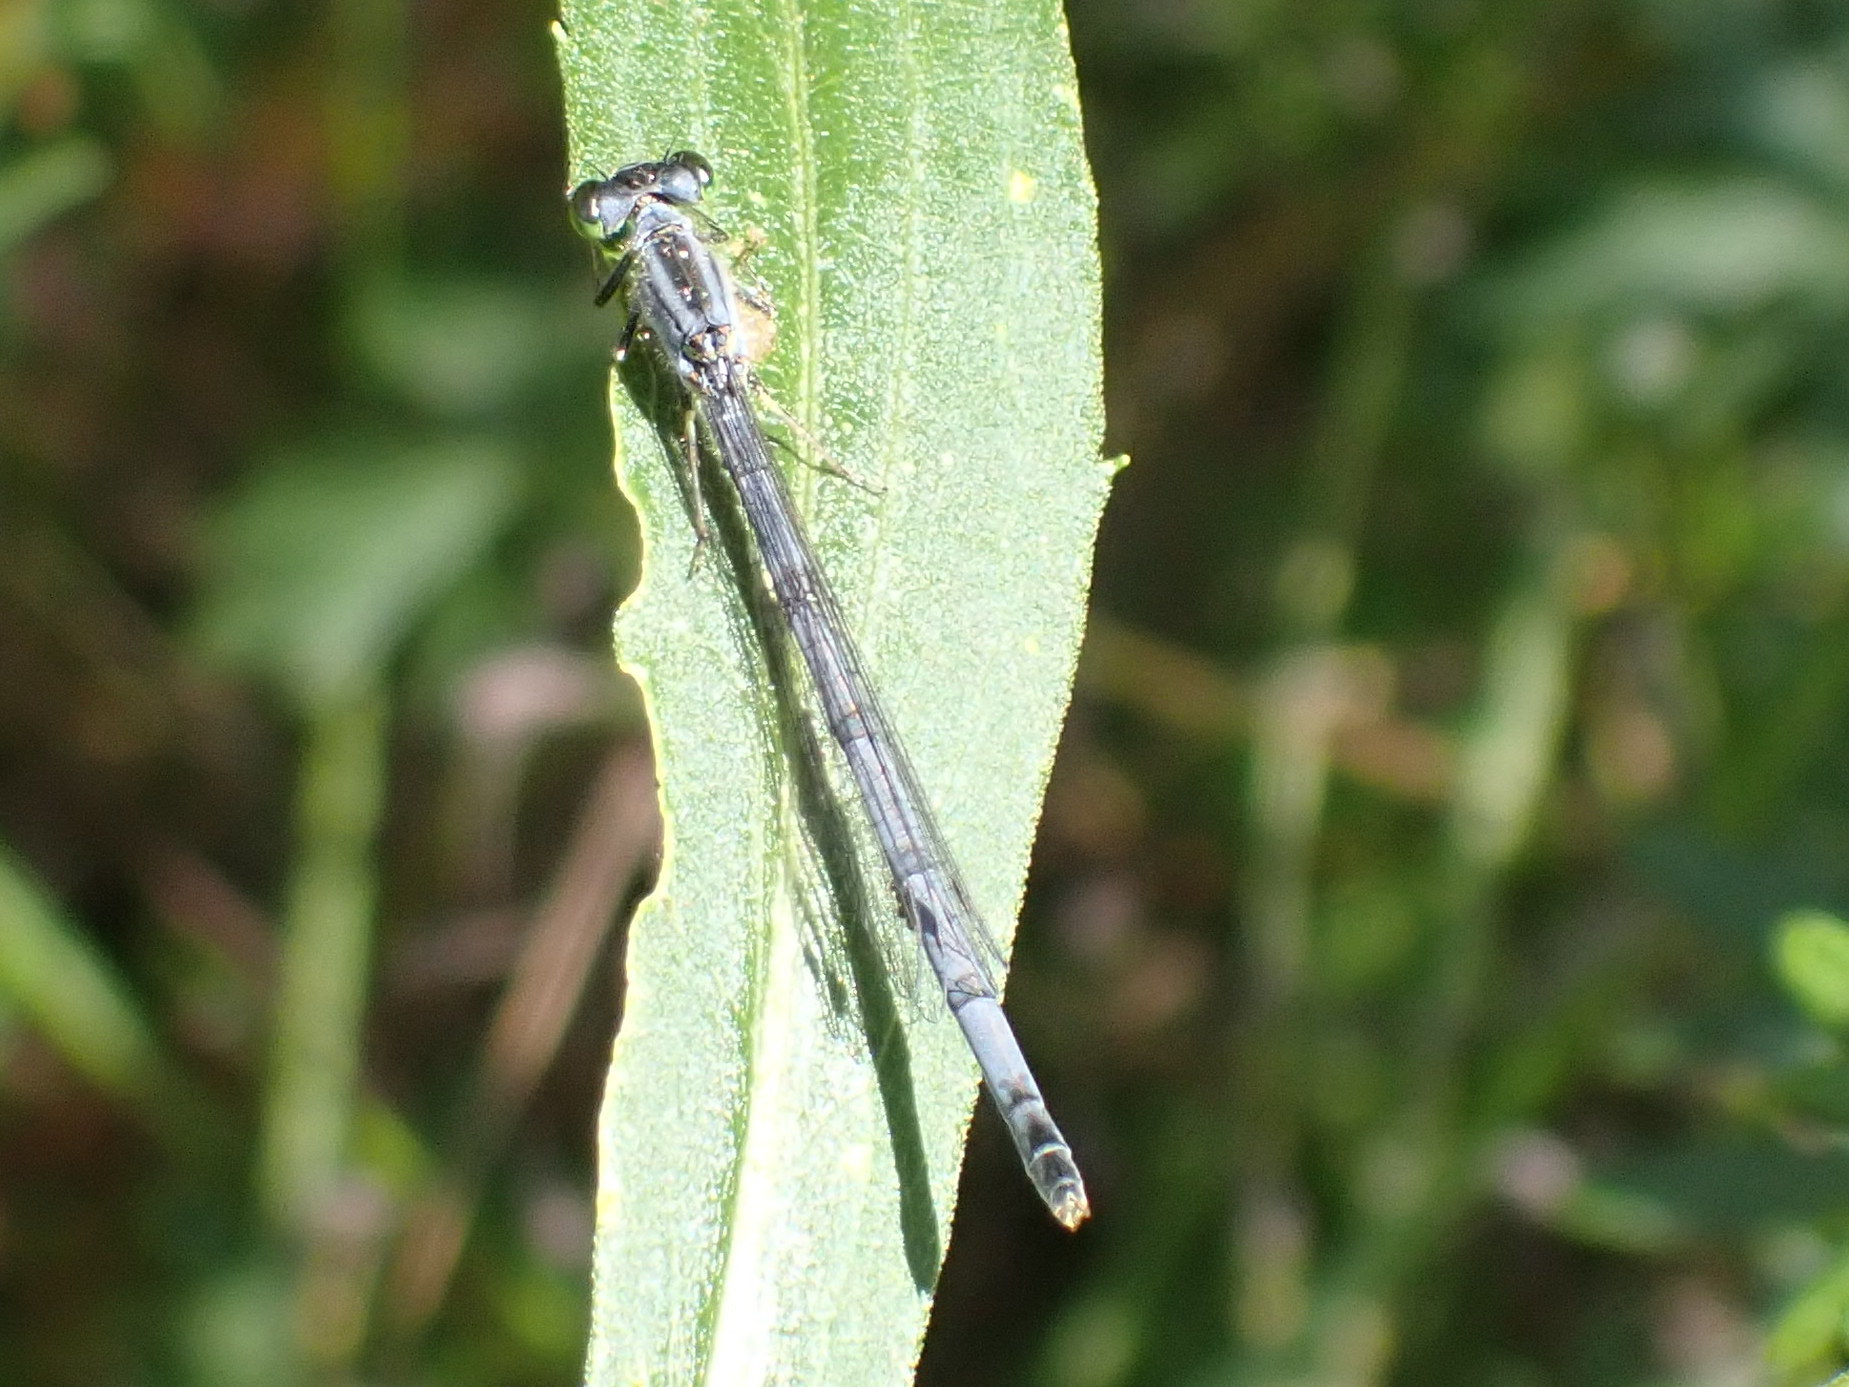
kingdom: Animalia
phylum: Arthropoda
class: Insecta
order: Odonata
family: Coenagrionidae
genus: Ischnura
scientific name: Ischnura verticalis
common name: Eastern forktail
